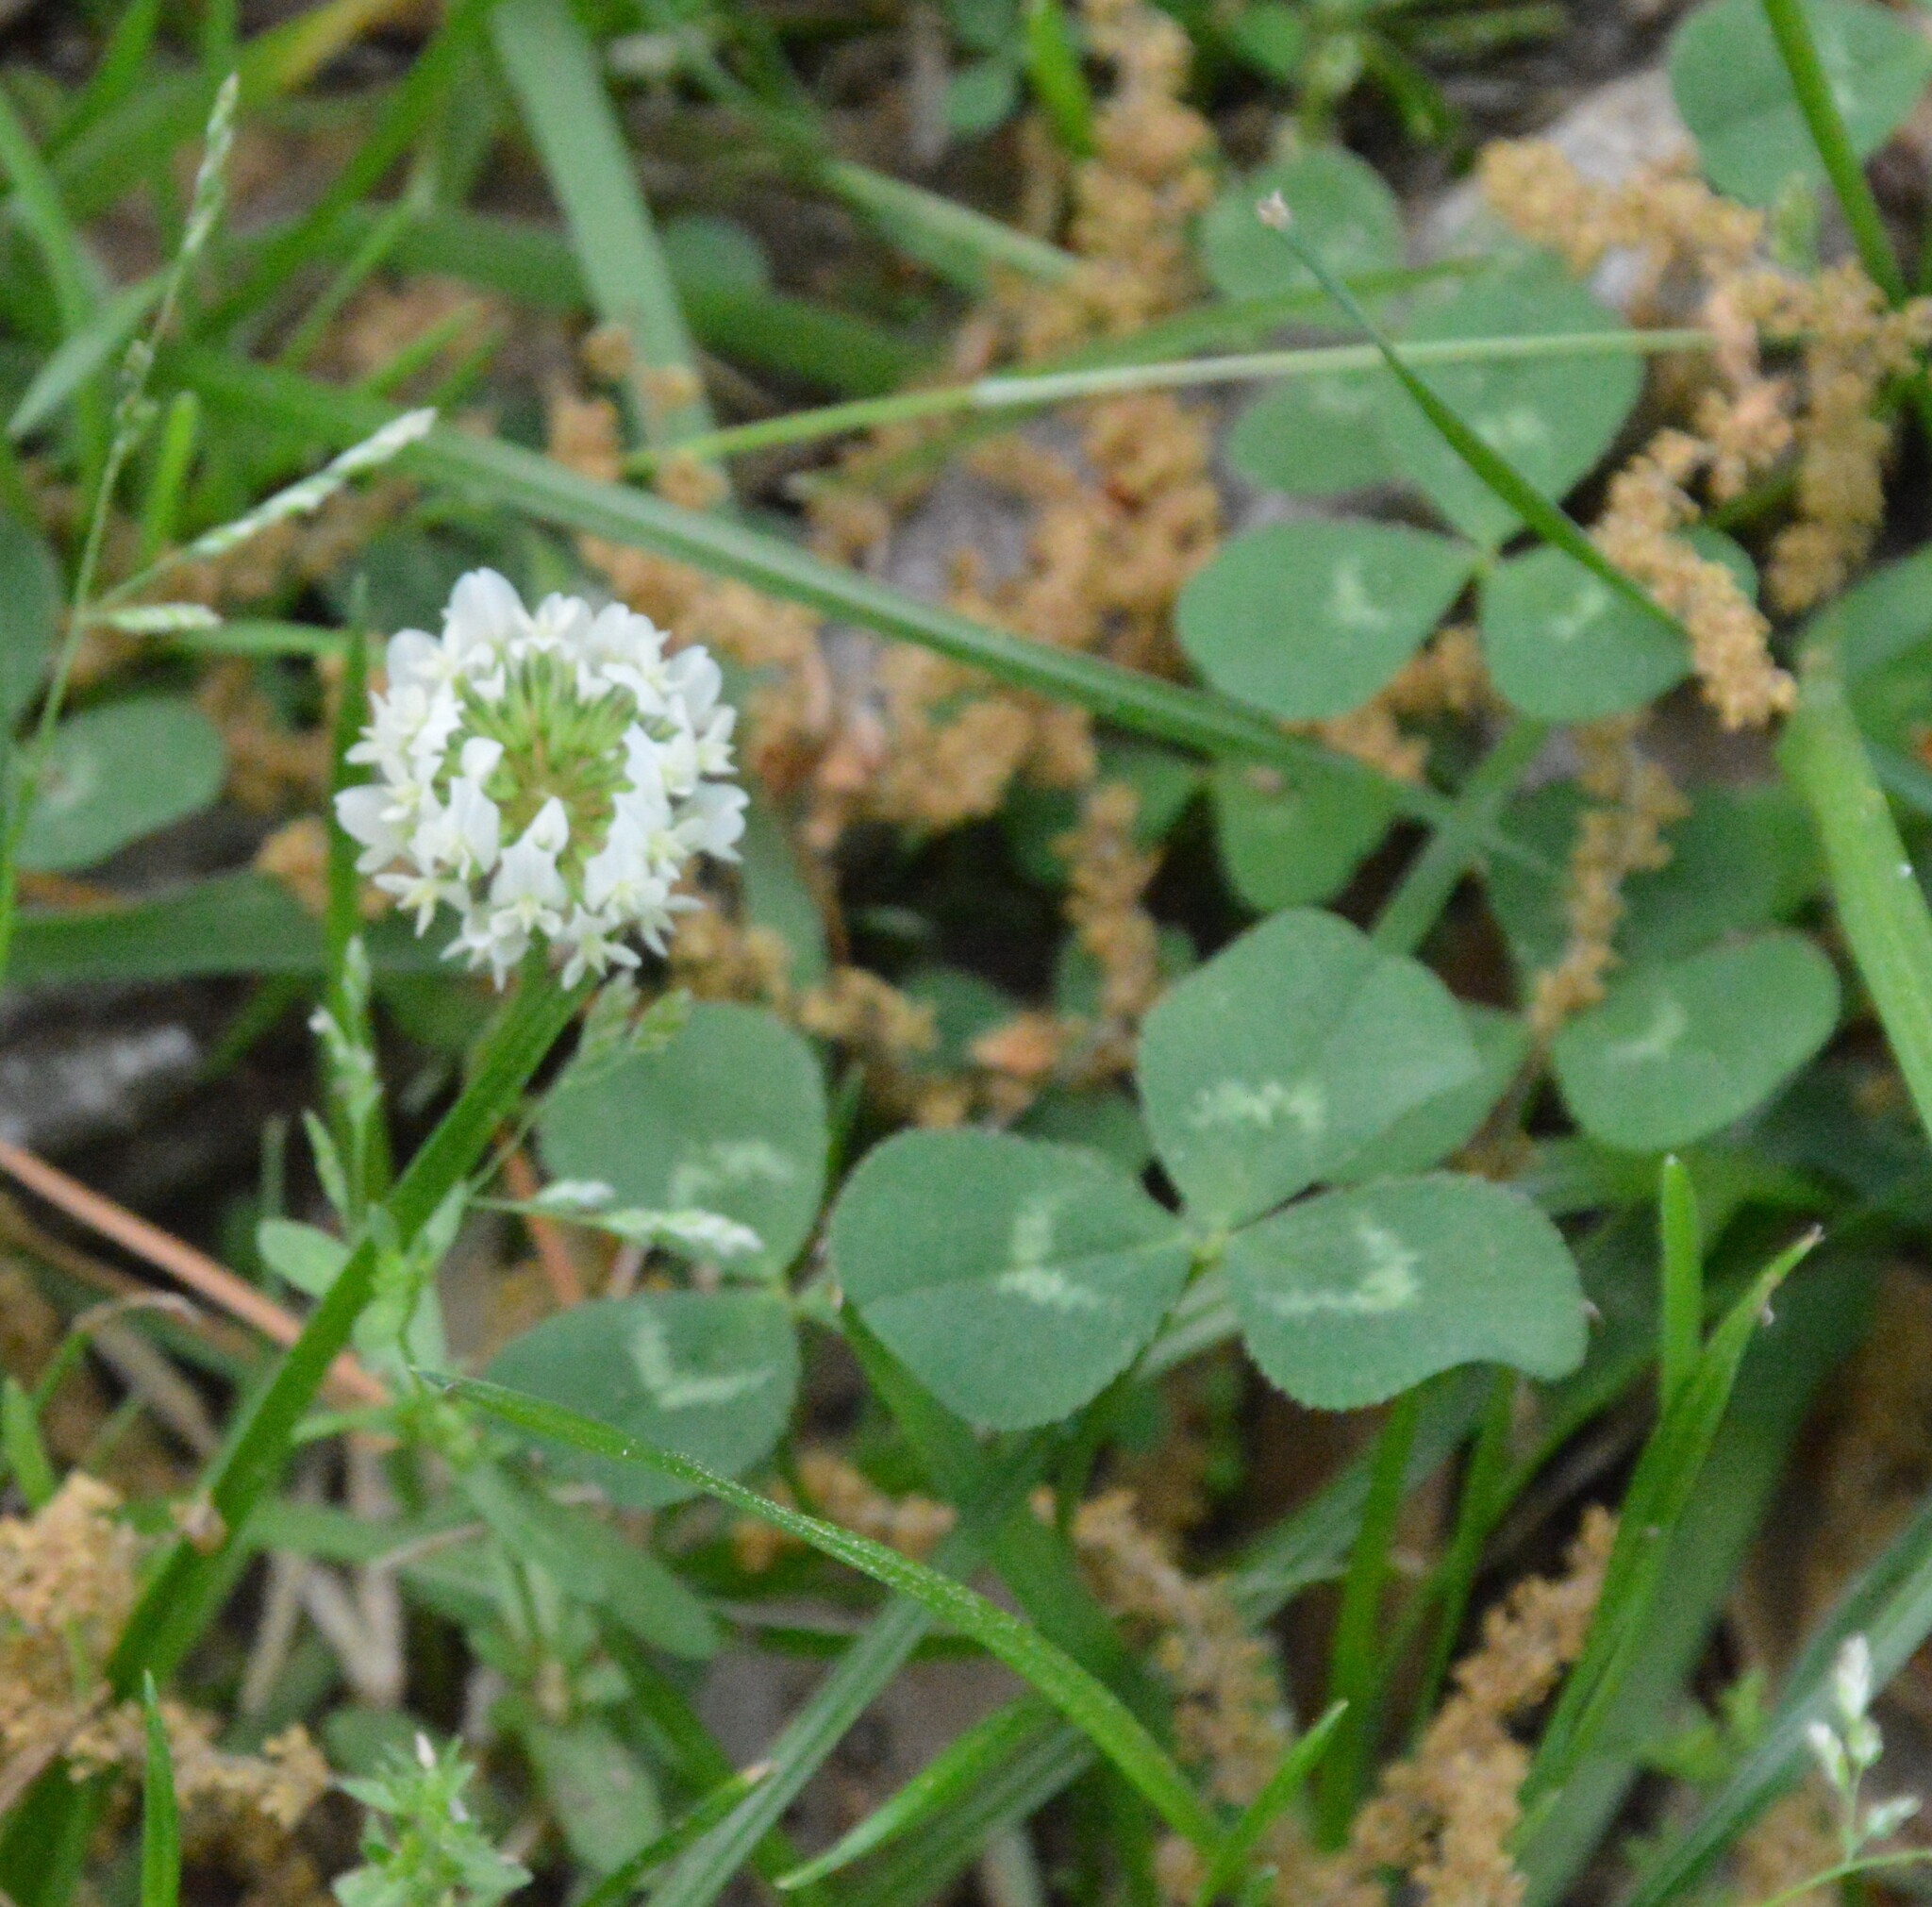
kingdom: Plantae
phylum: Tracheophyta
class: Magnoliopsida
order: Fabales
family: Fabaceae
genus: Trifolium
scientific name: Trifolium repens
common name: White clover
